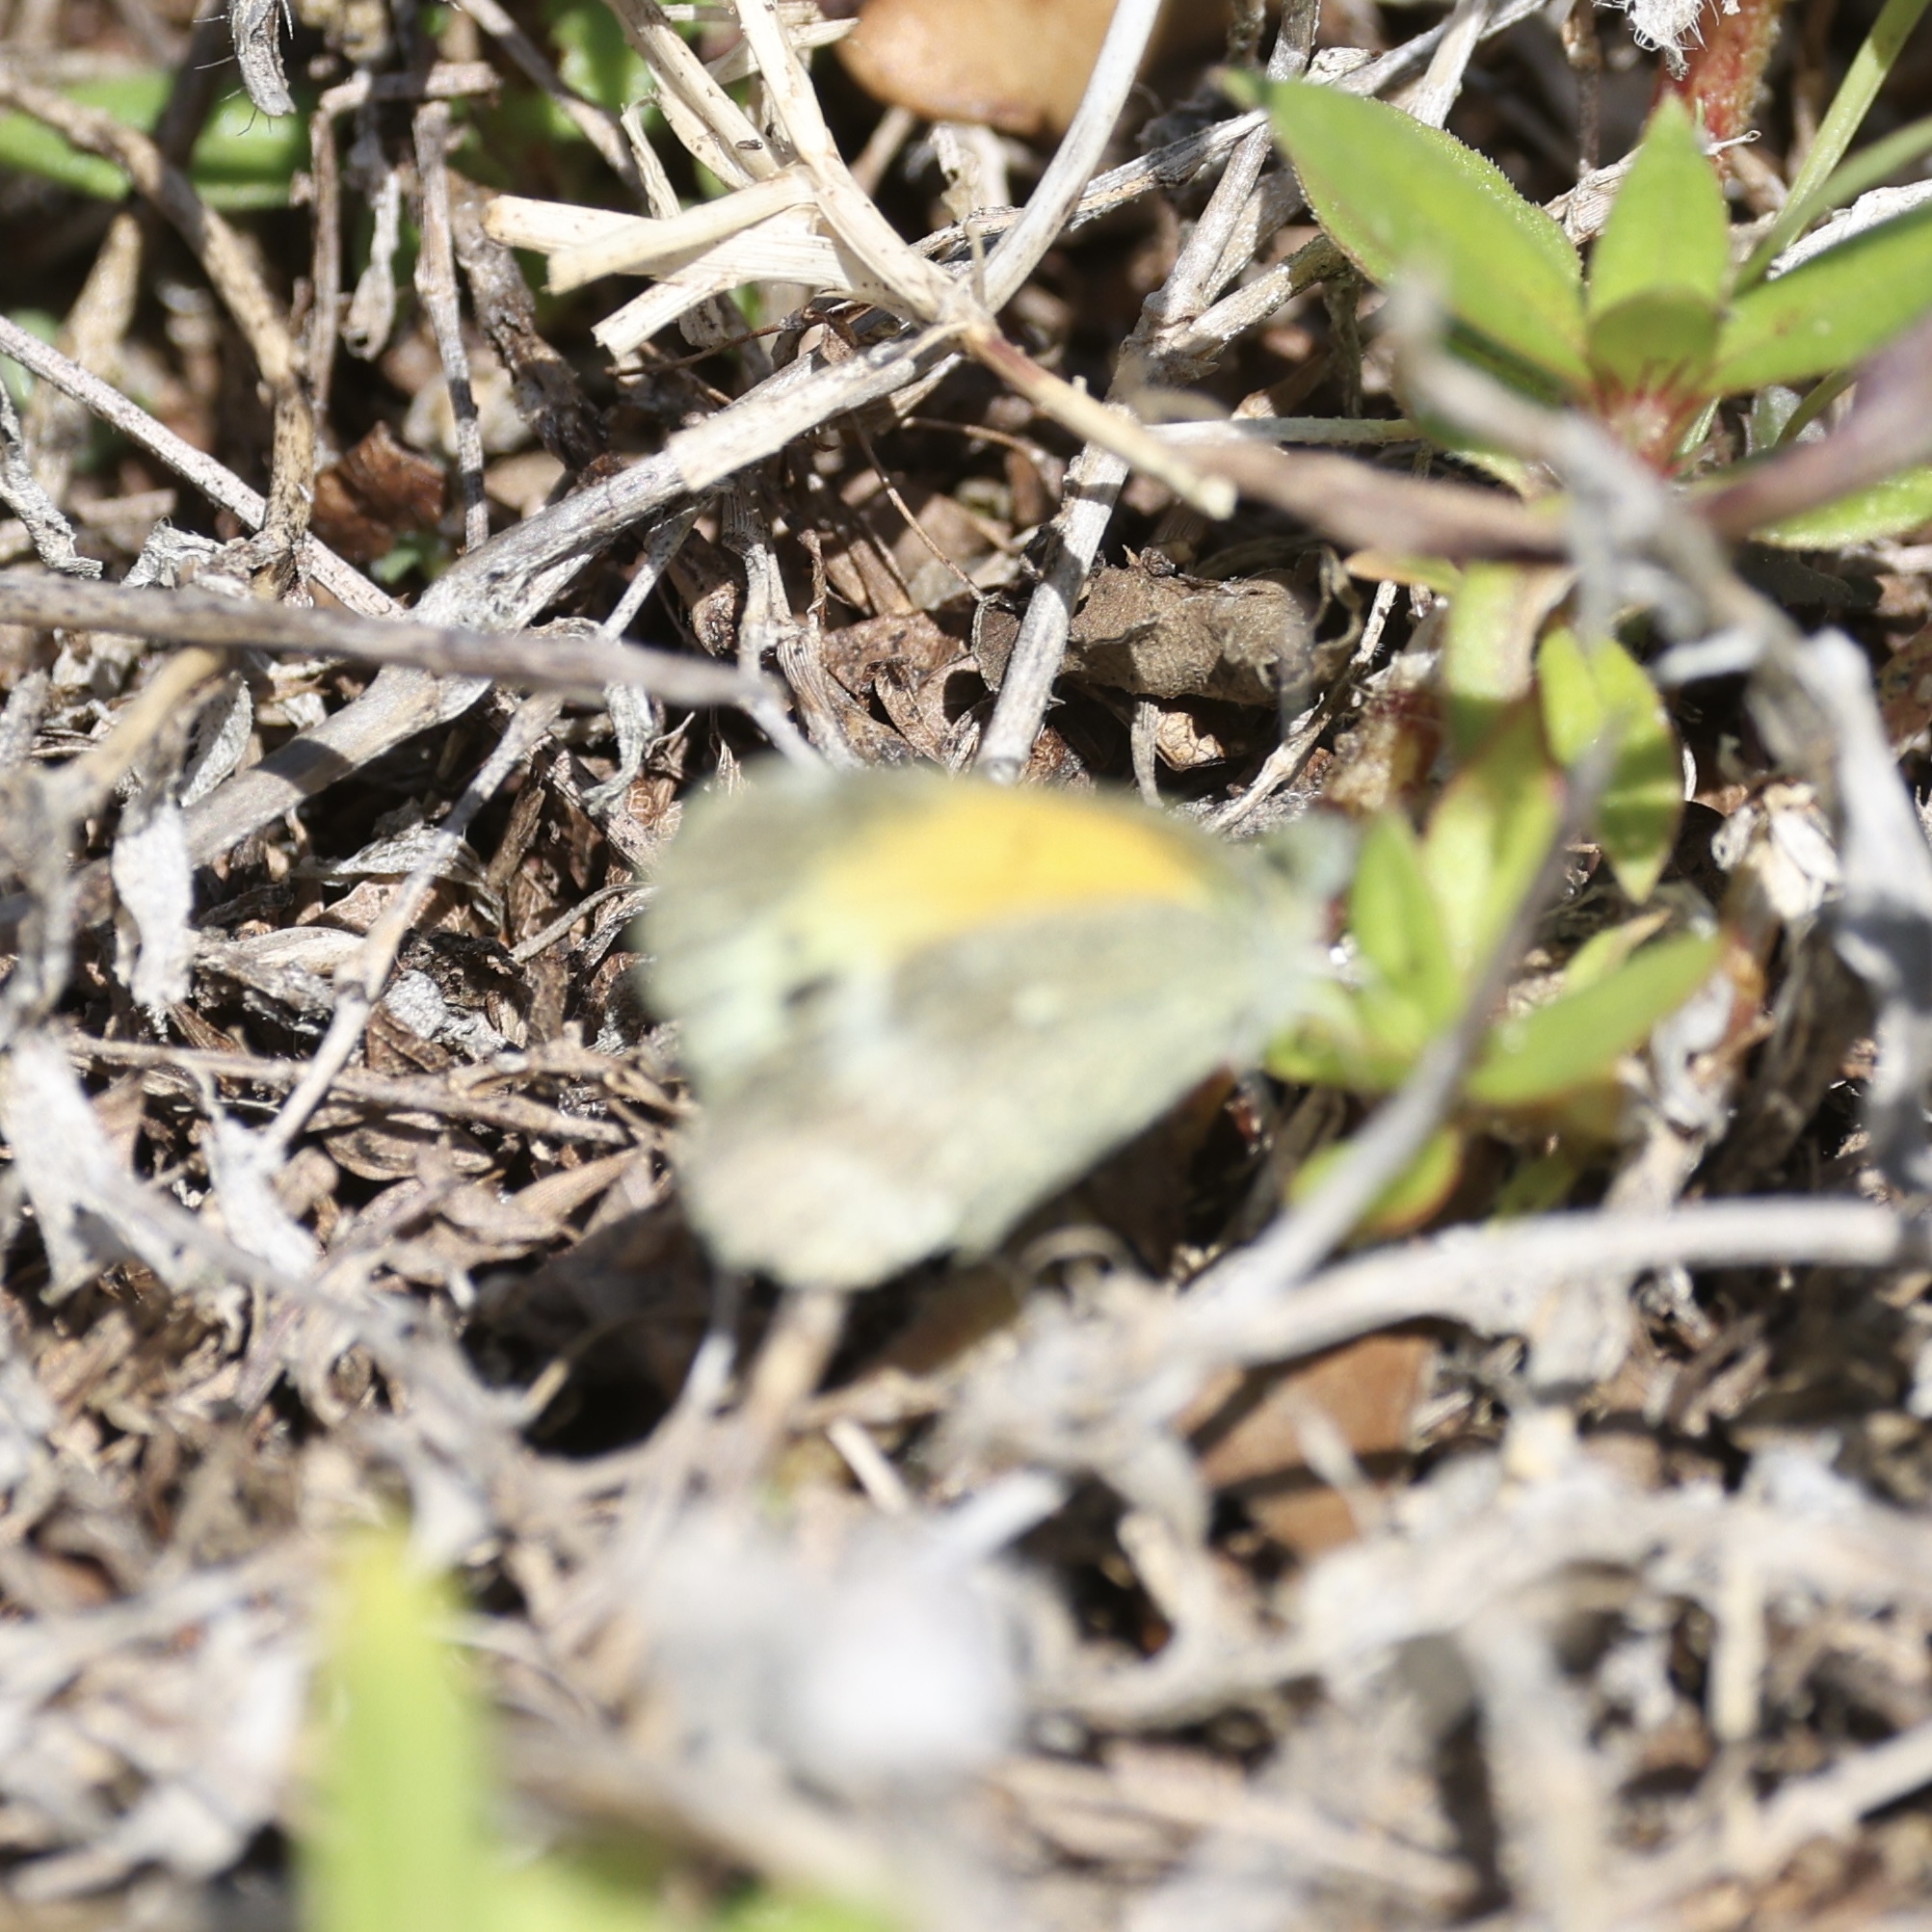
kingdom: Animalia
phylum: Arthropoda
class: Insecta
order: Lepidoptera
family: Pieridae
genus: Nathalis
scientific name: Nathalis iole
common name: Dainty sulphur
